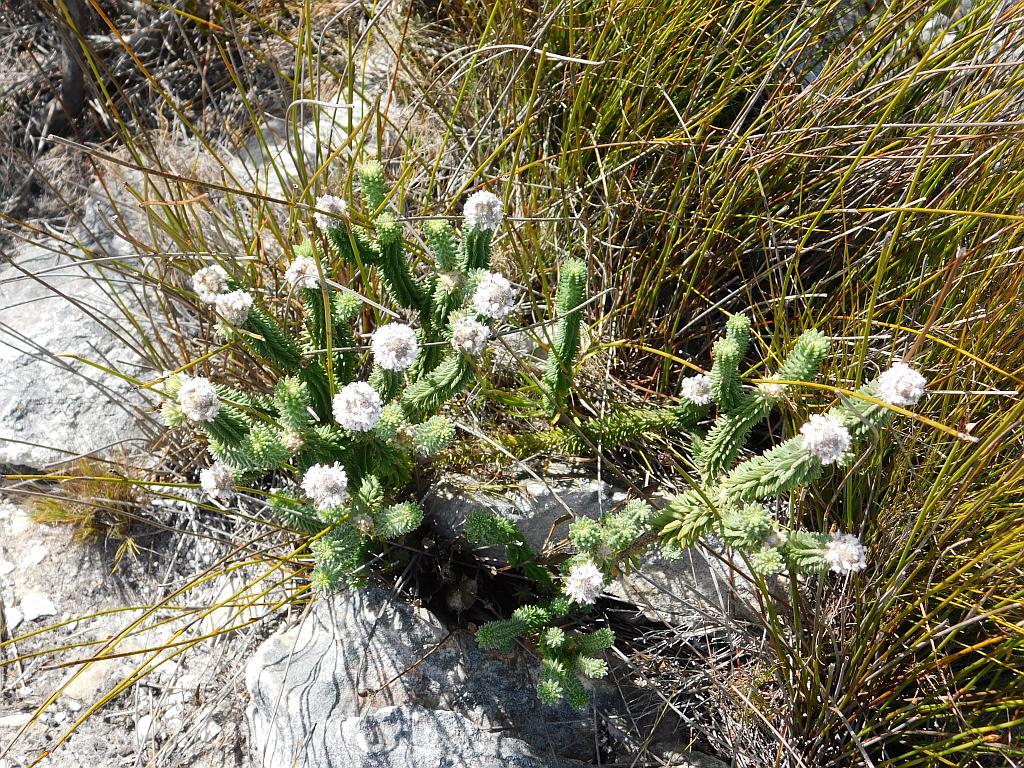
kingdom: Plantae
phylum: Tracheophyta
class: Magnoliopsida
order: Lamiales
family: Stilbaceae
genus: Kogelbergia
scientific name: Kogelbergia verticillata
